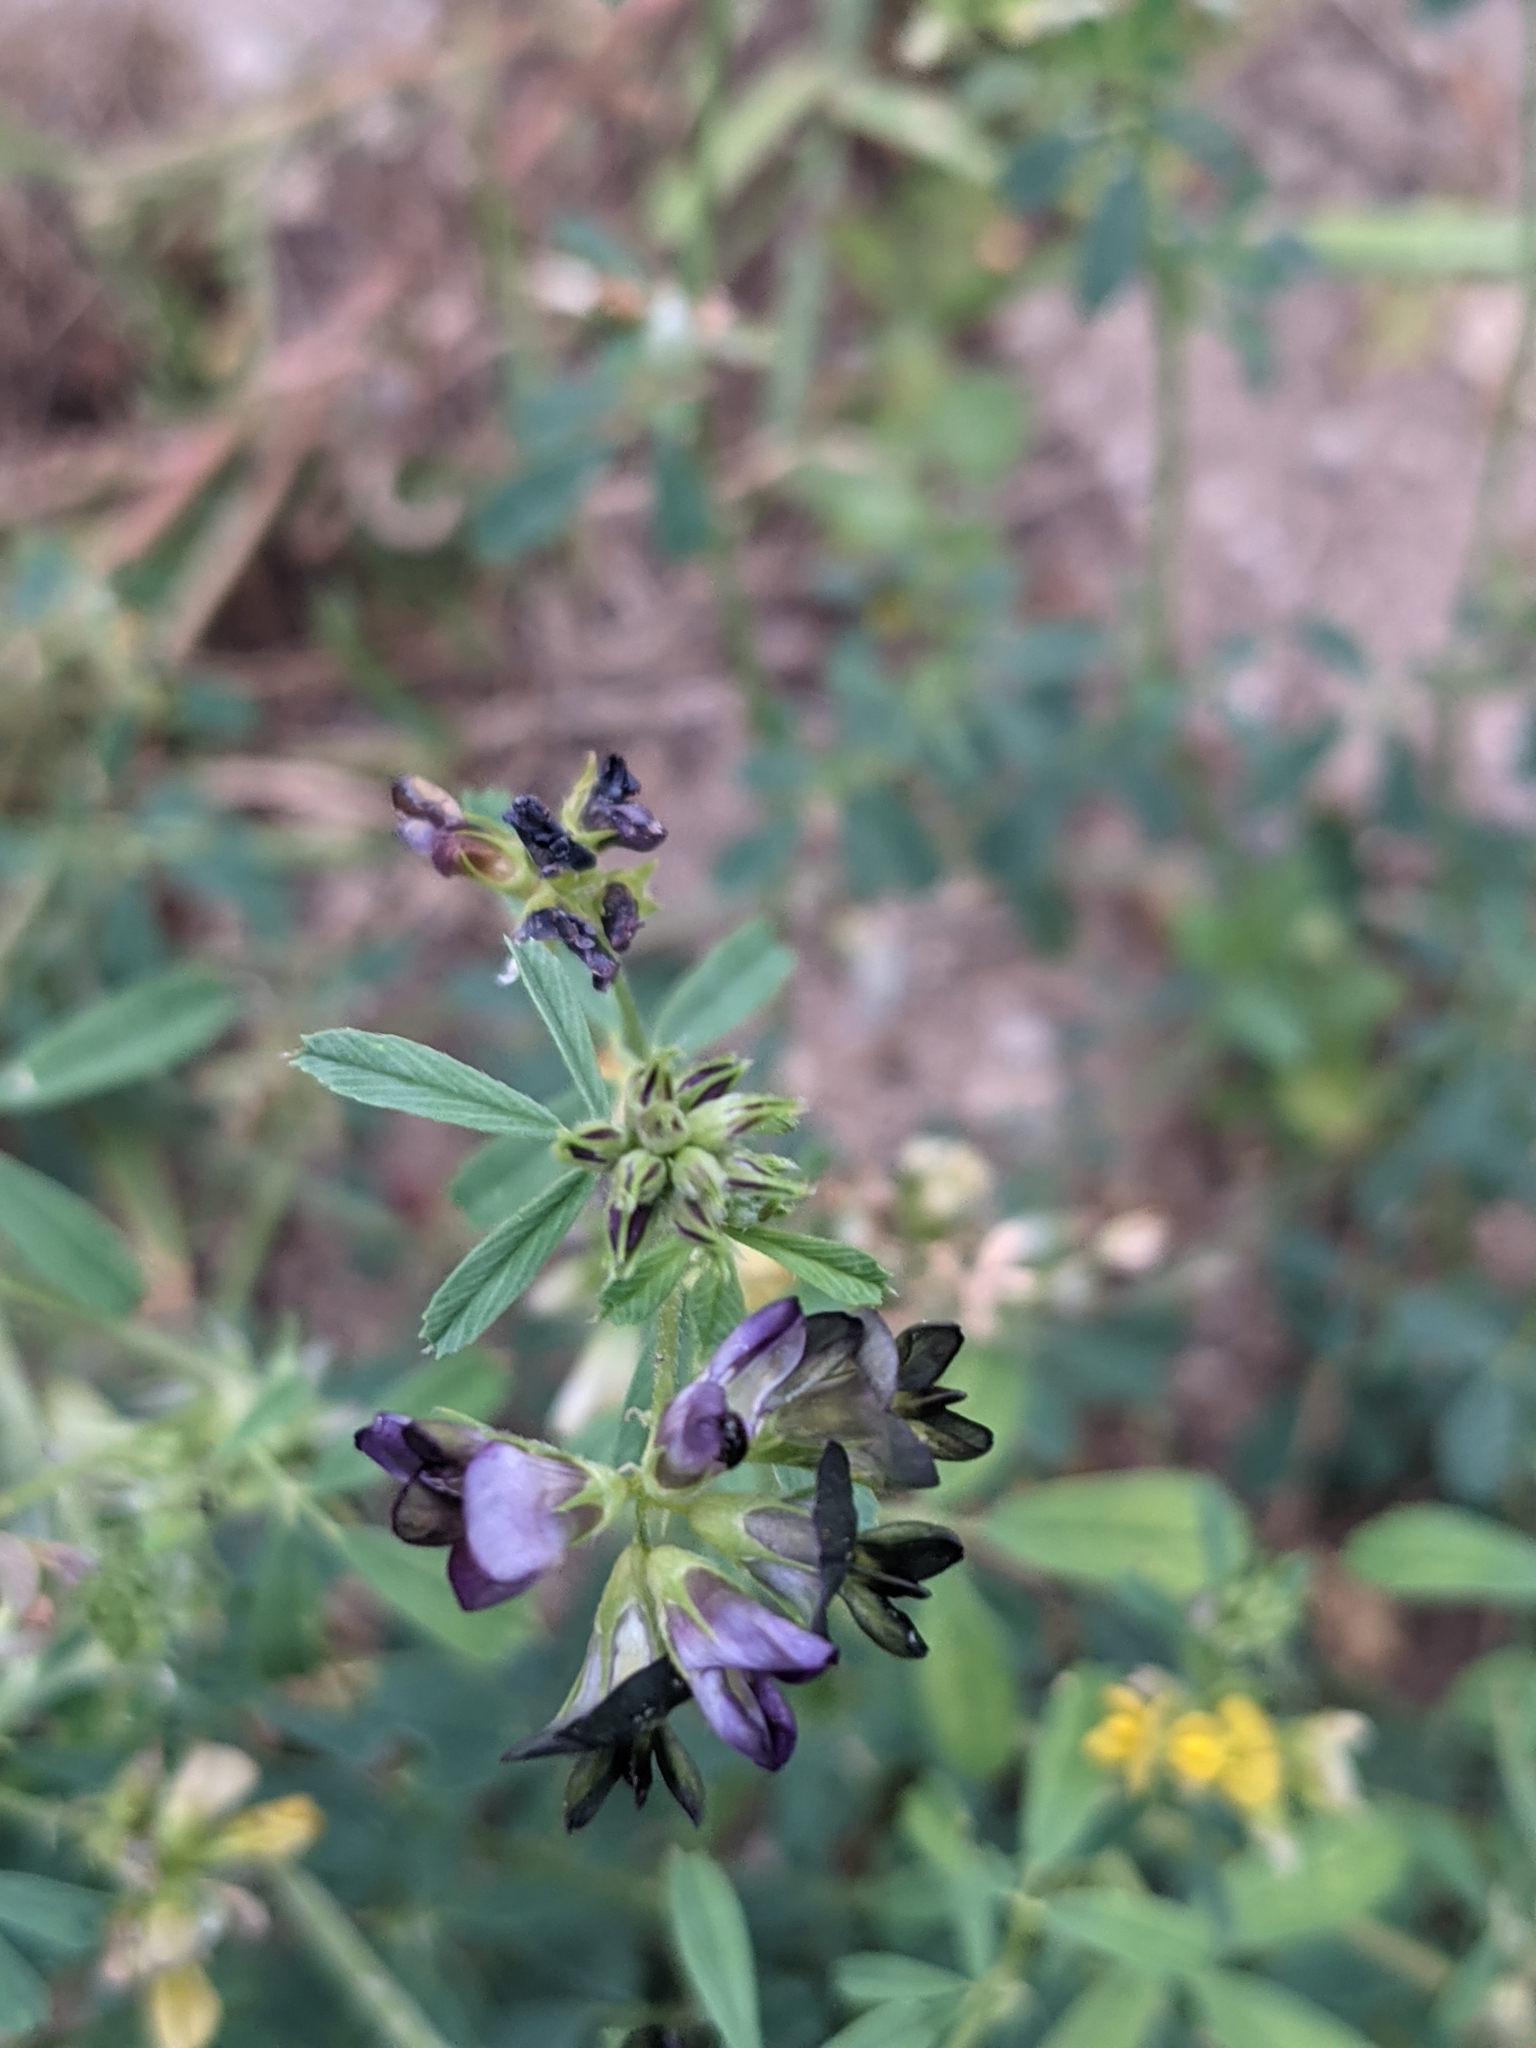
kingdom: Plantae
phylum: Tracheophyta
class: Magnoliopsida
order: Fabales
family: Fabaceae
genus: Medicago
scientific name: Medicago sativa
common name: Alfalfa
